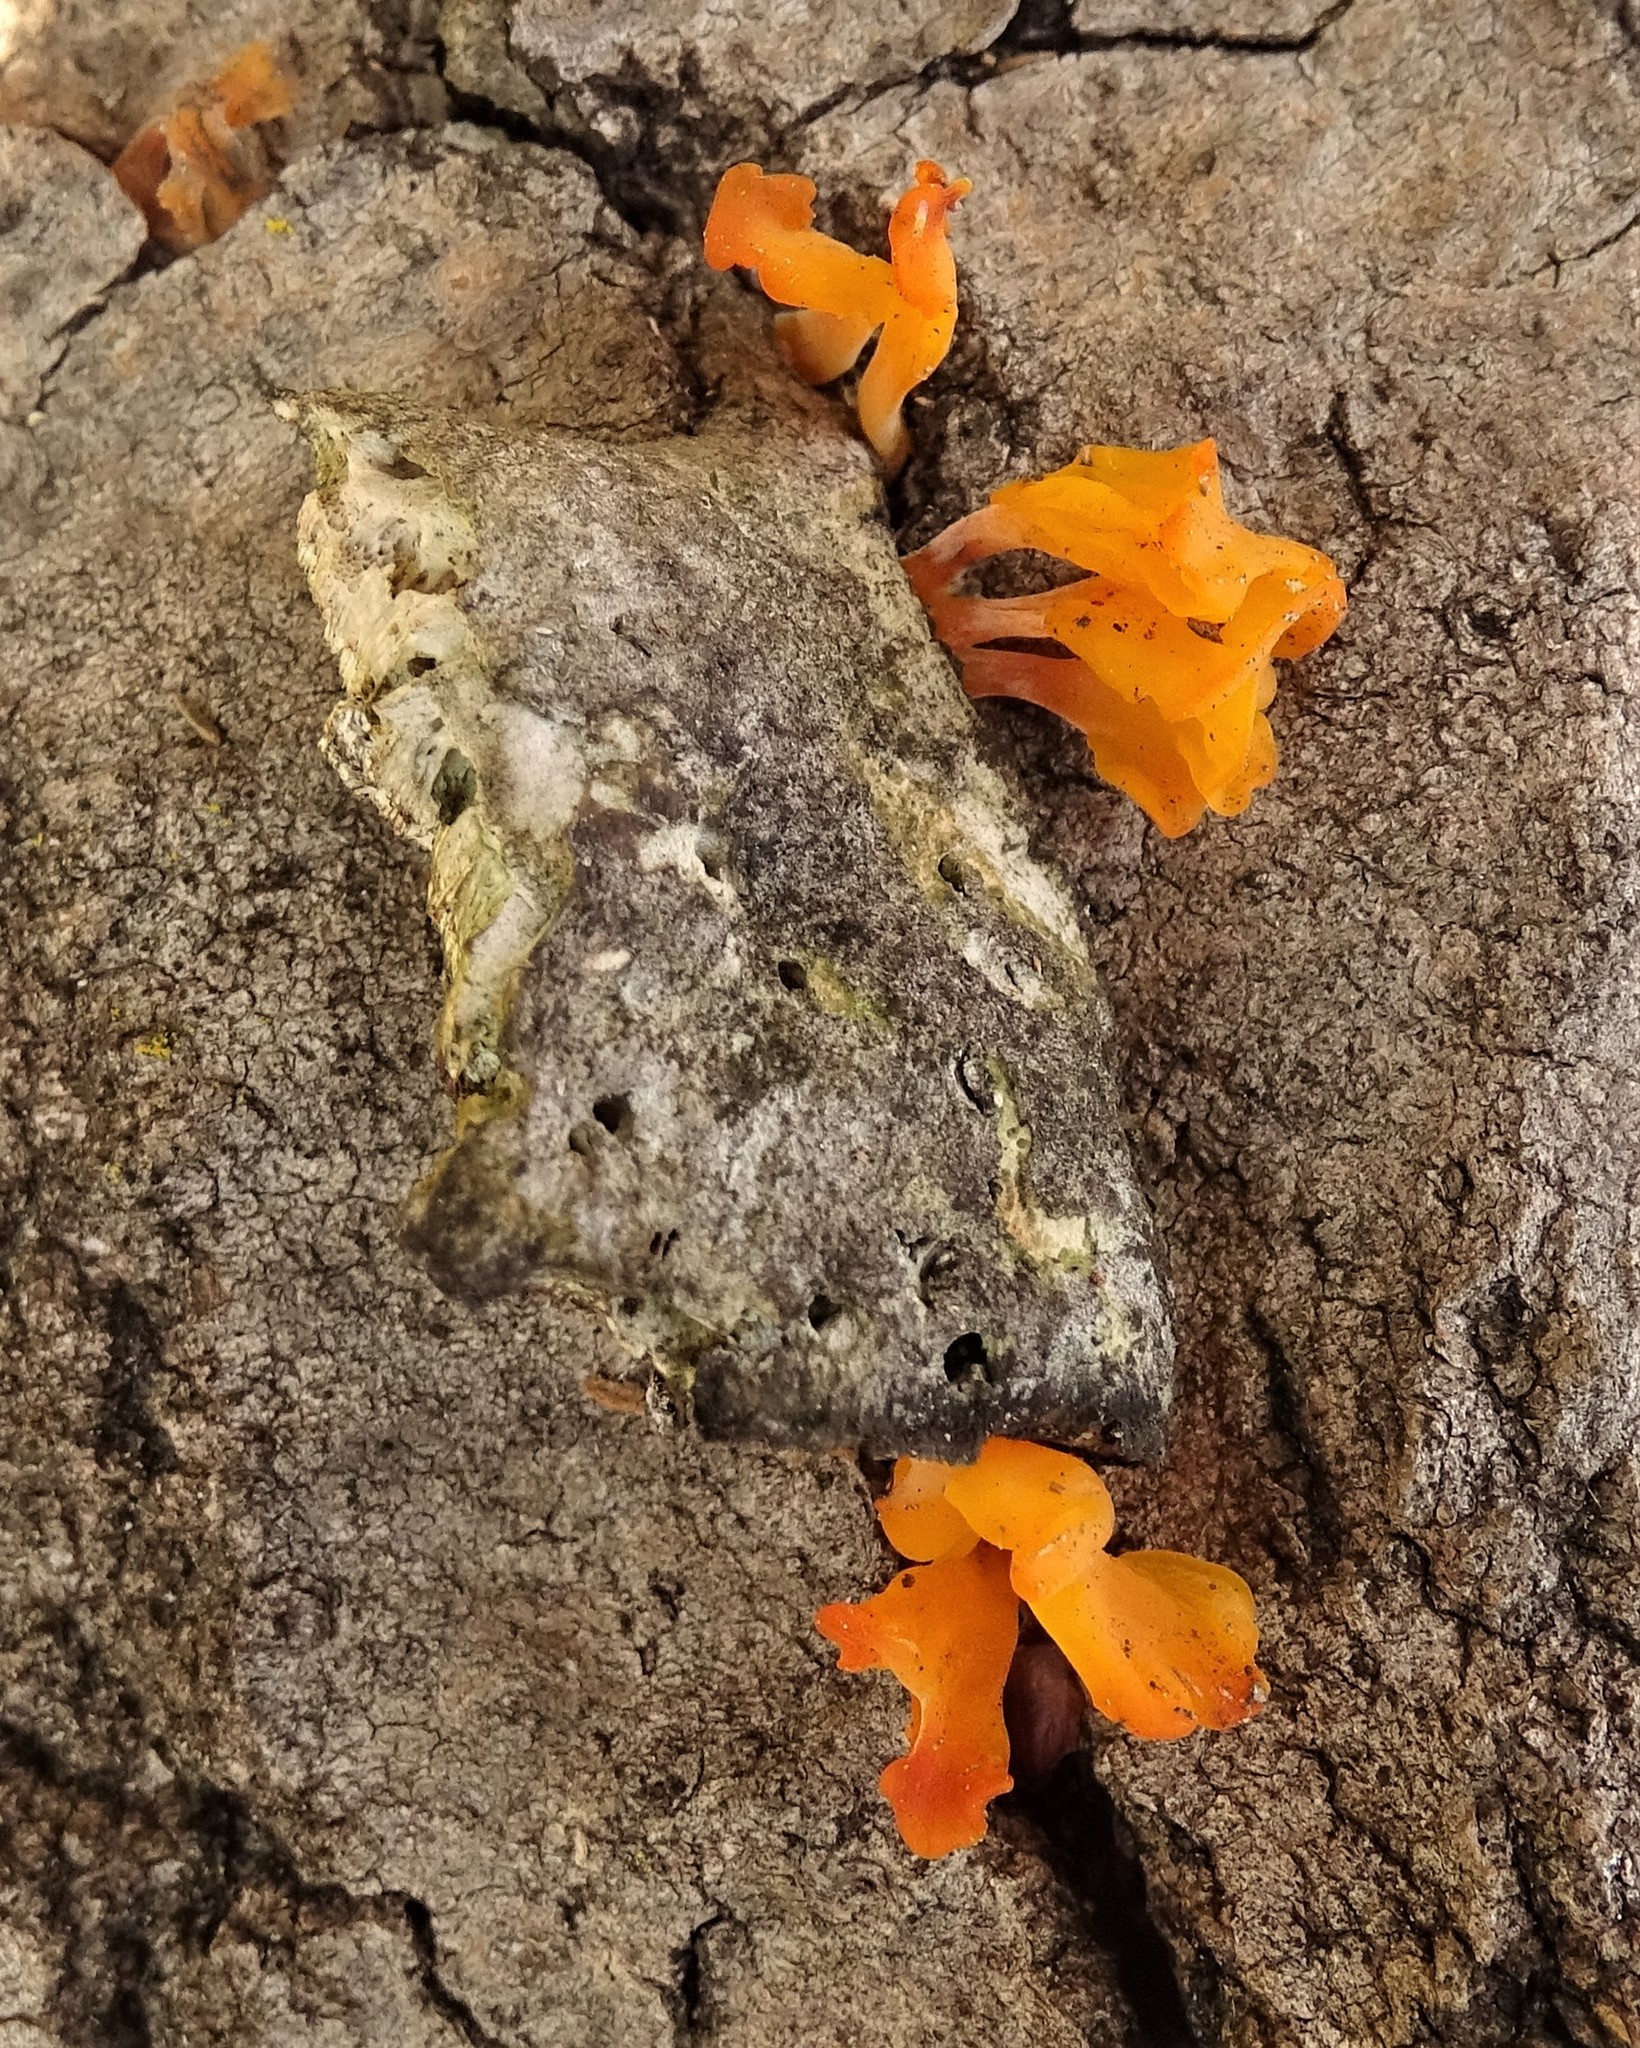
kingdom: Fungi
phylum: Basidiomycota
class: Dacrymycetes
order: Dacrymycetales
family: Dacrymycetaceae
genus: Dacrymyces
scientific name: Dacrymyces spathularius
